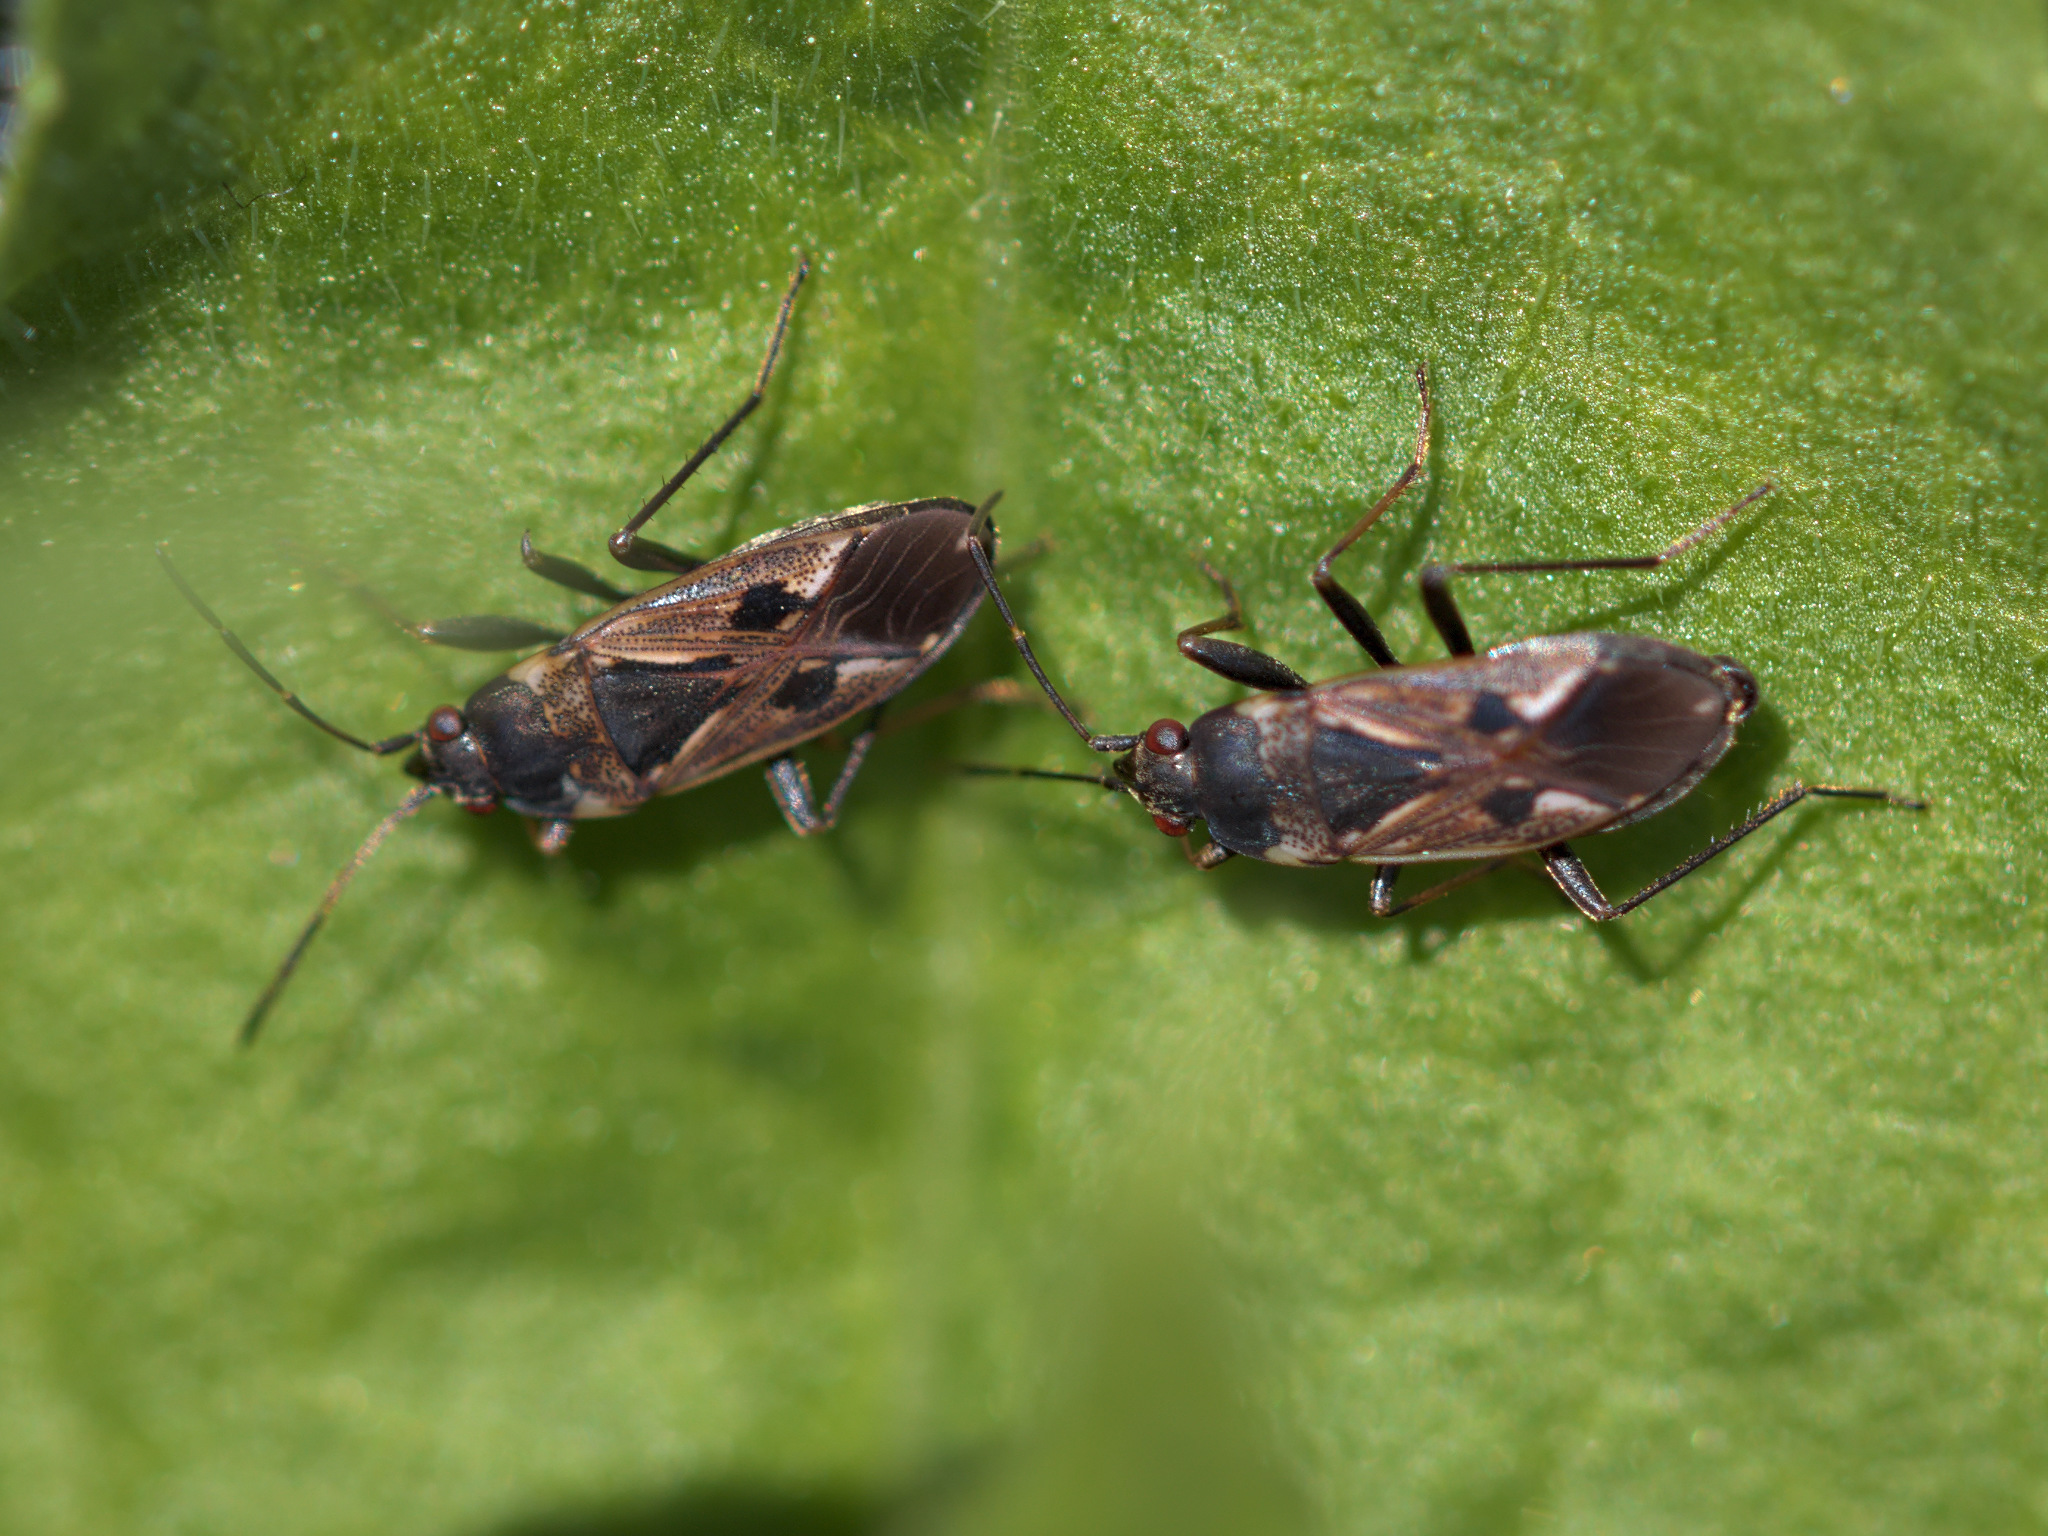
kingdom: Animalia
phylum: Arthropoda
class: Insecta
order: Hemiptera
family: Rhyparochromidae
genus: Rhyparochromus
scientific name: Rhyparochromus vulgaris
